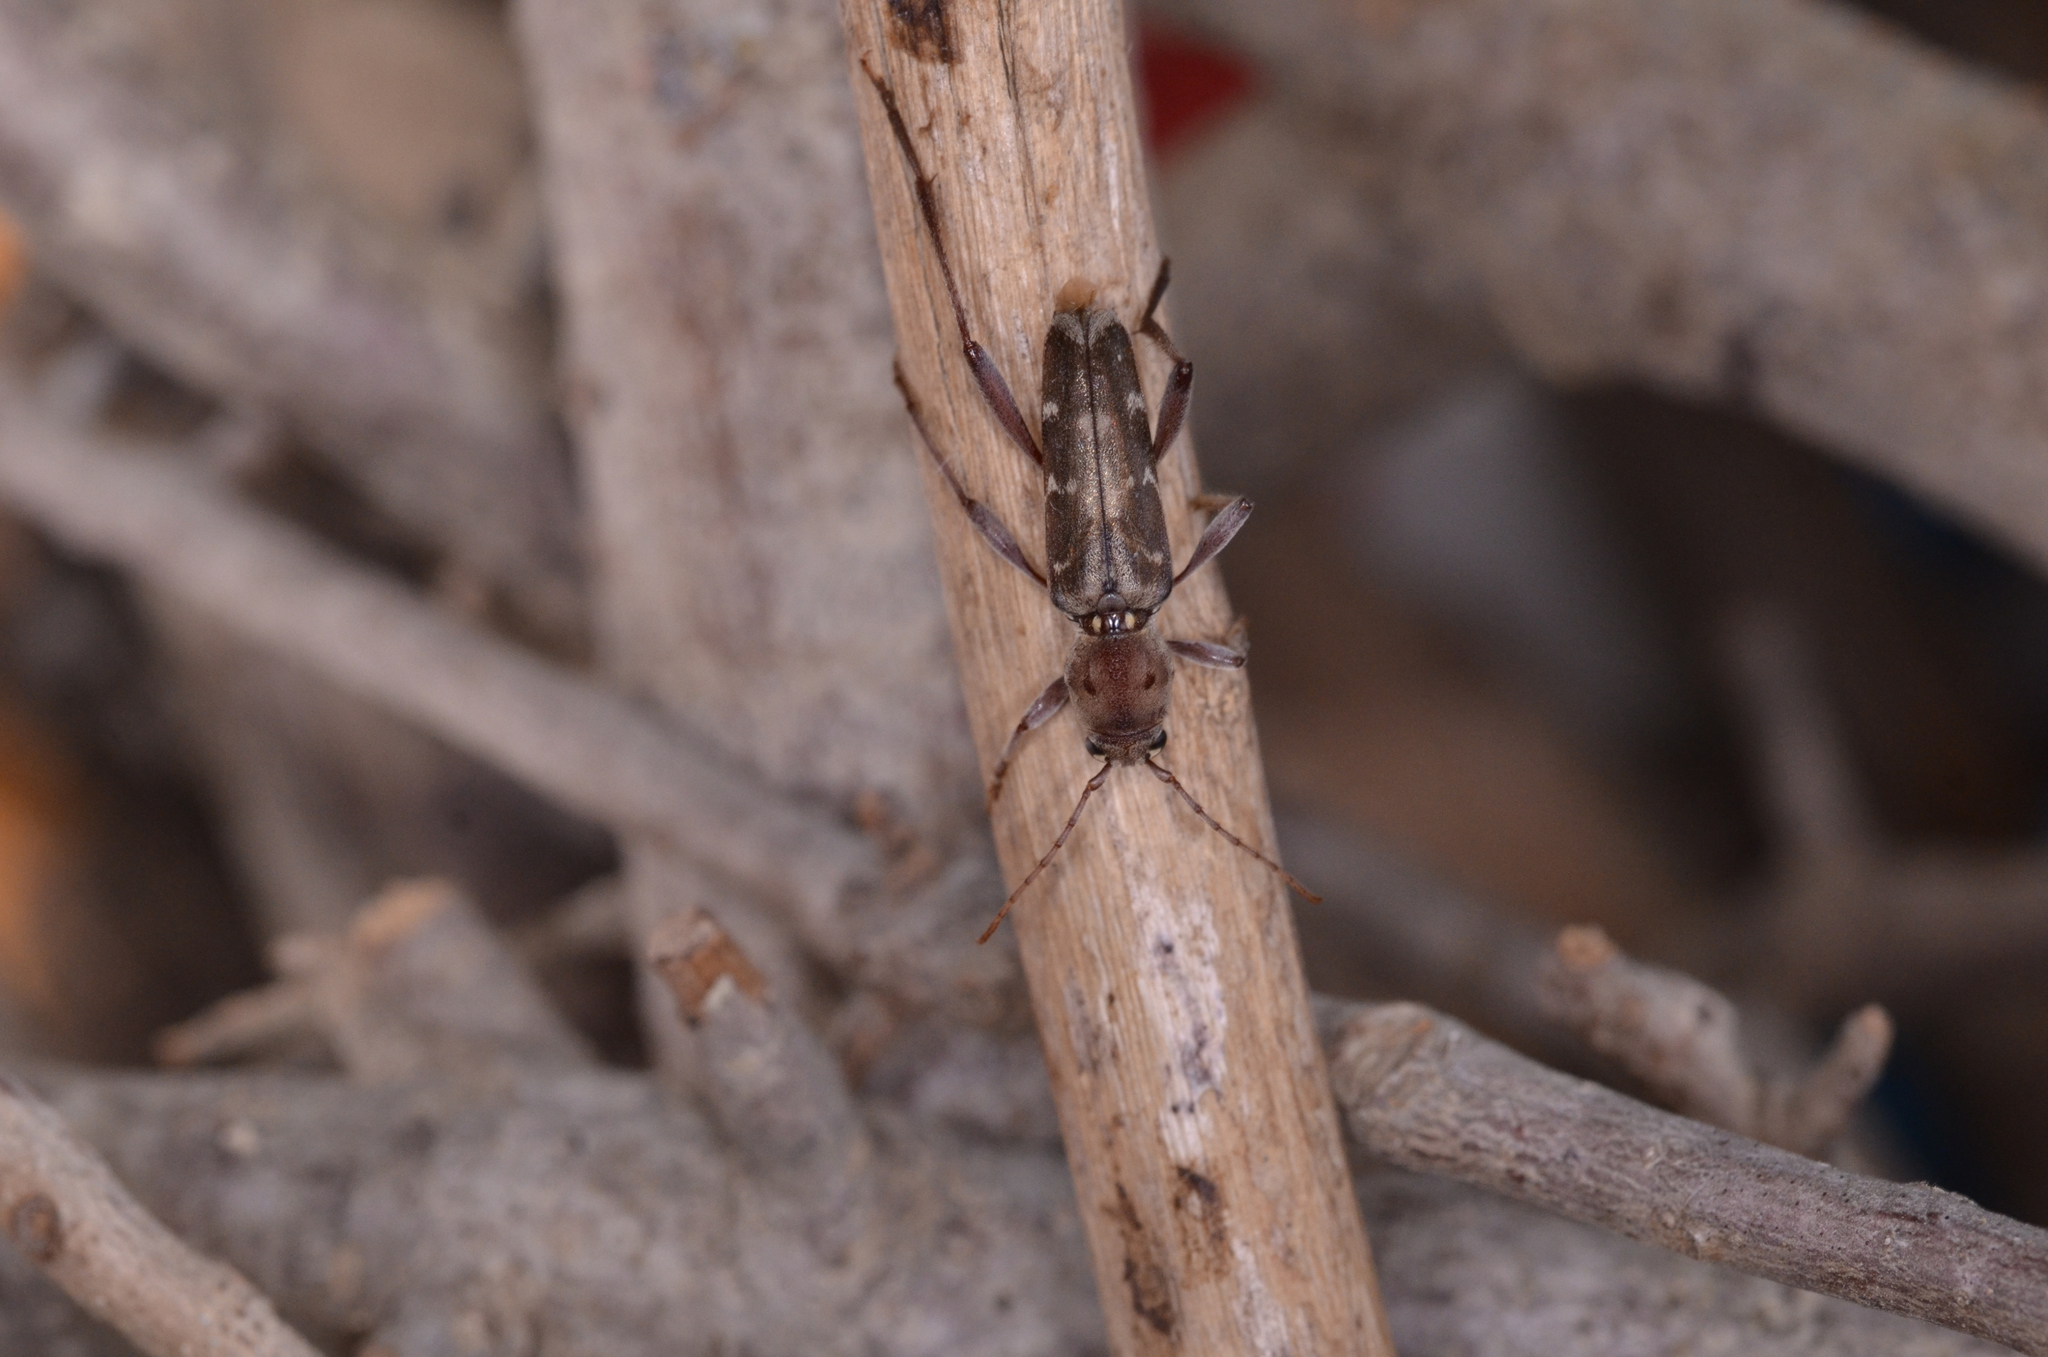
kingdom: Animalia
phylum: Arthropoda
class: Insecta
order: Coleoptera
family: Cerambycidae
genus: Xylotrechus
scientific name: Xylotrechus smei
